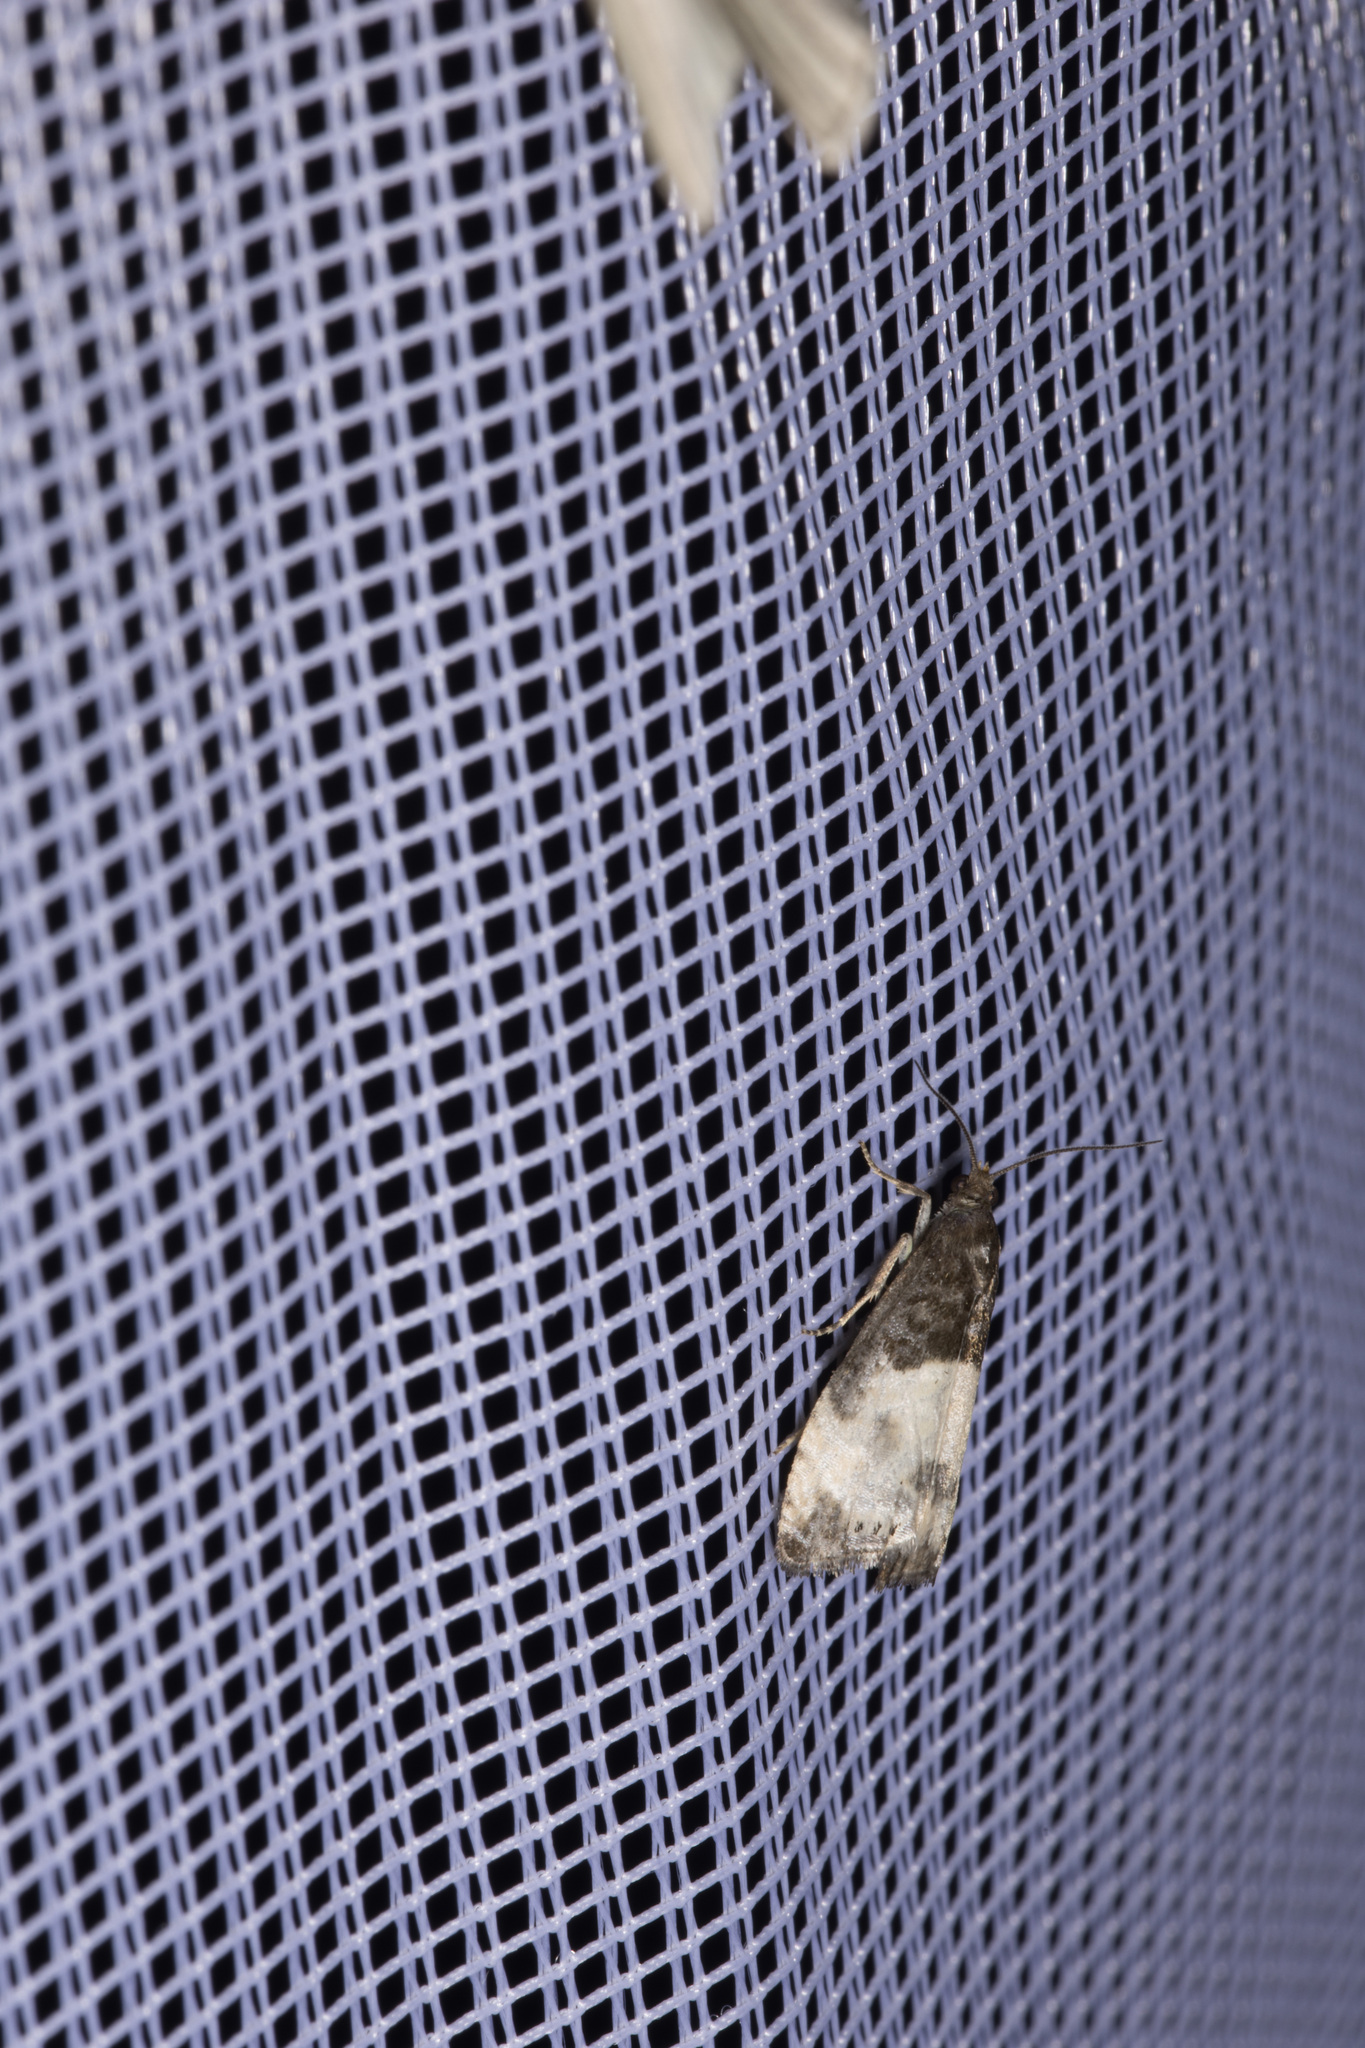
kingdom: Animalia
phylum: Arthropoda
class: Insecta
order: Lepidoptera
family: Tortricidae
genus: Notocelia
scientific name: Notocelia cynosbatella
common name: Yellow-faced bell moth
